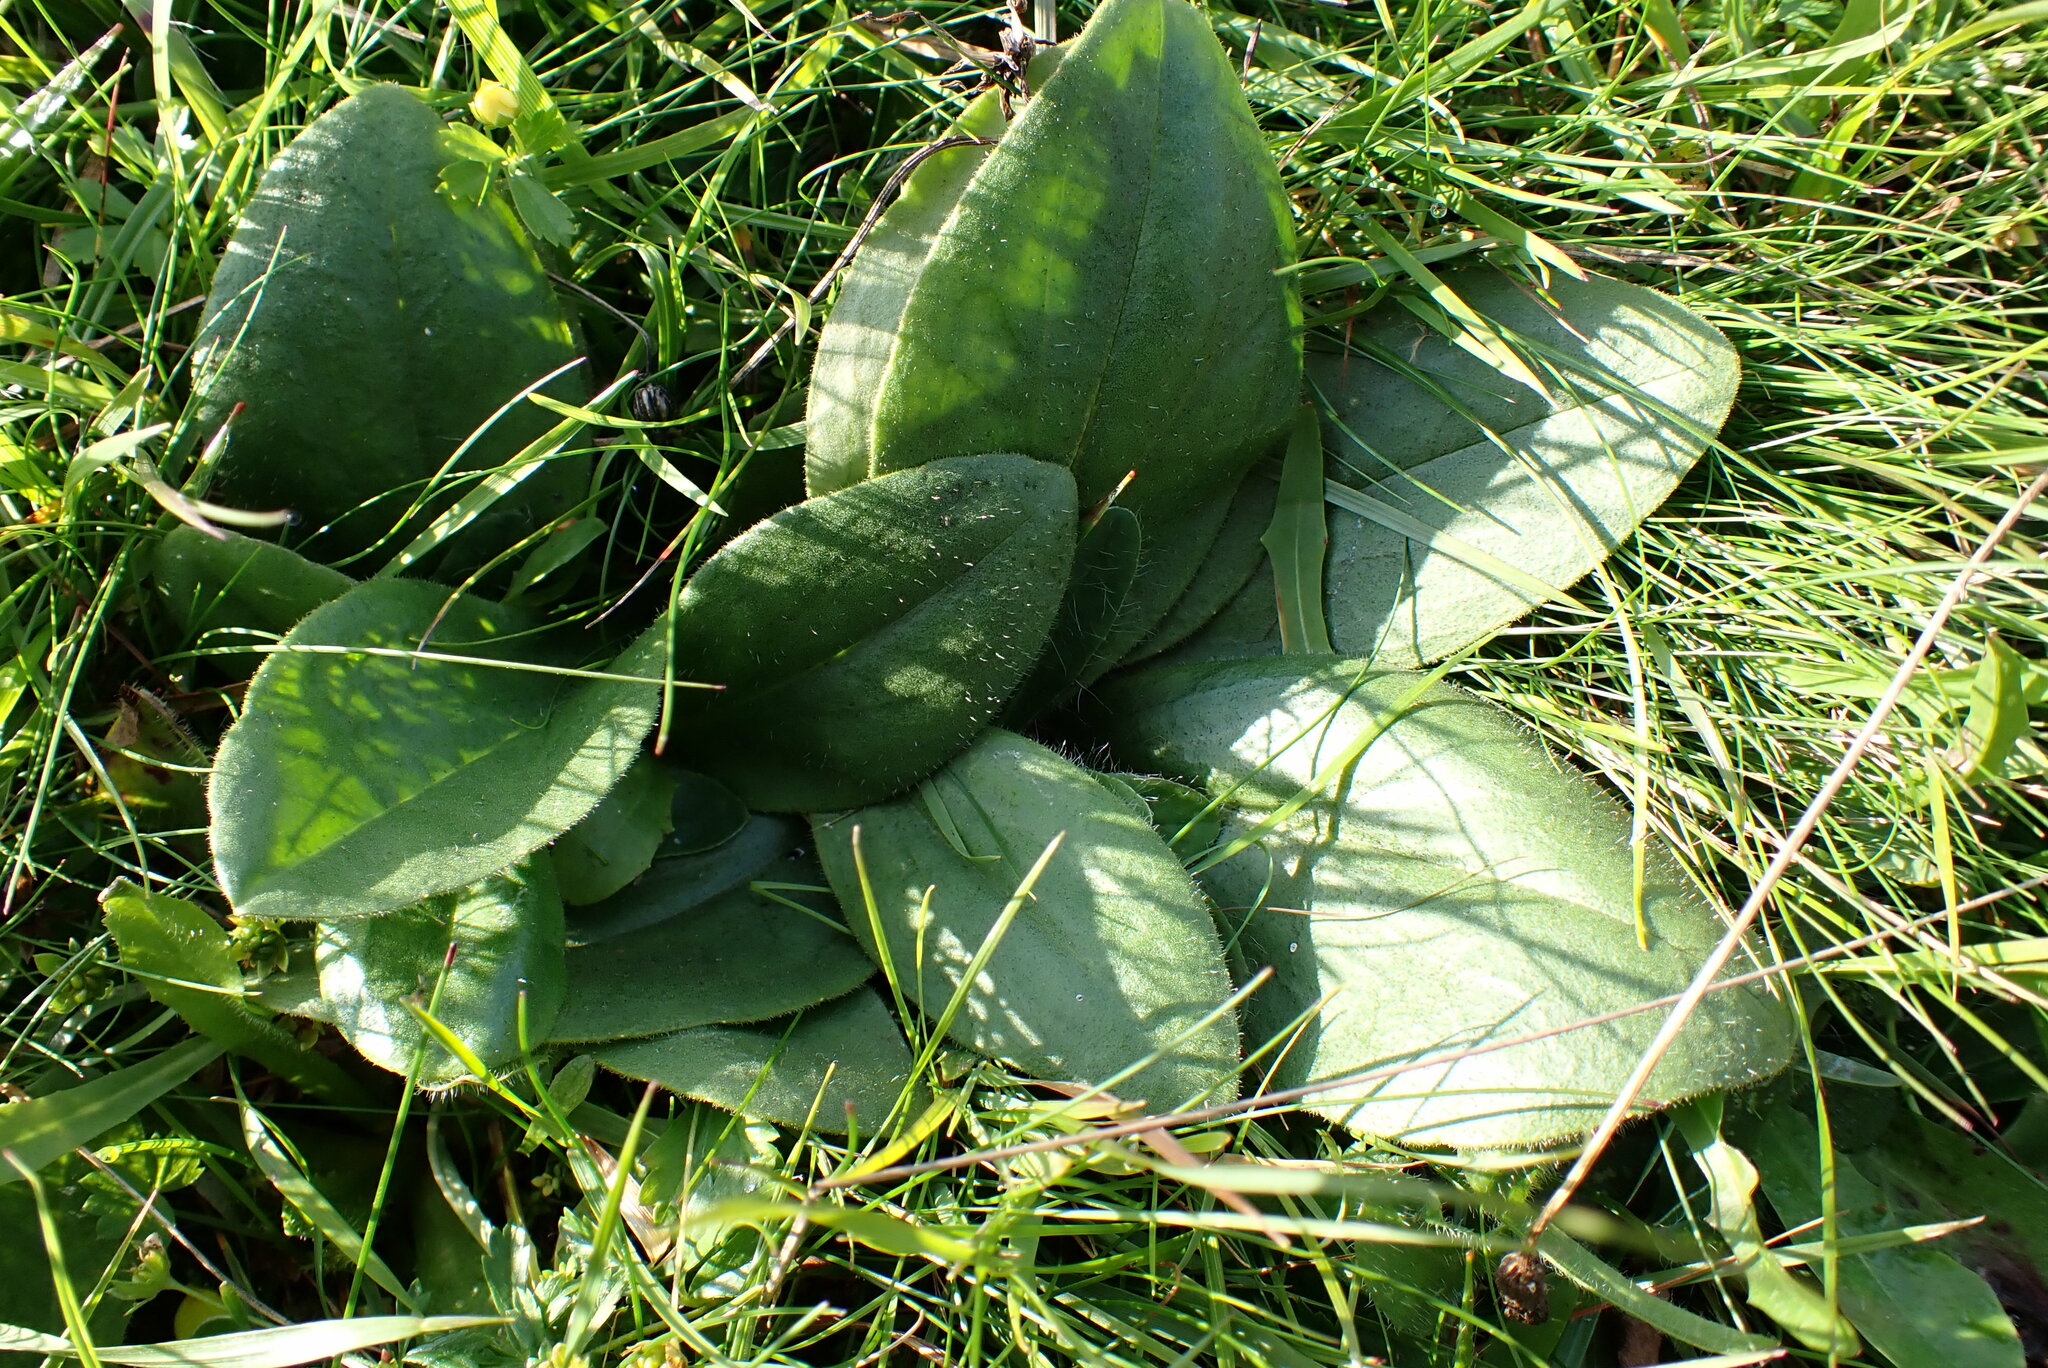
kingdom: Plantae
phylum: Tracheophyta
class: Magnoliopsida
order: Asterales
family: Asteraceae
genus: Arnica
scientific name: Arnica montana
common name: Leopard's bane
